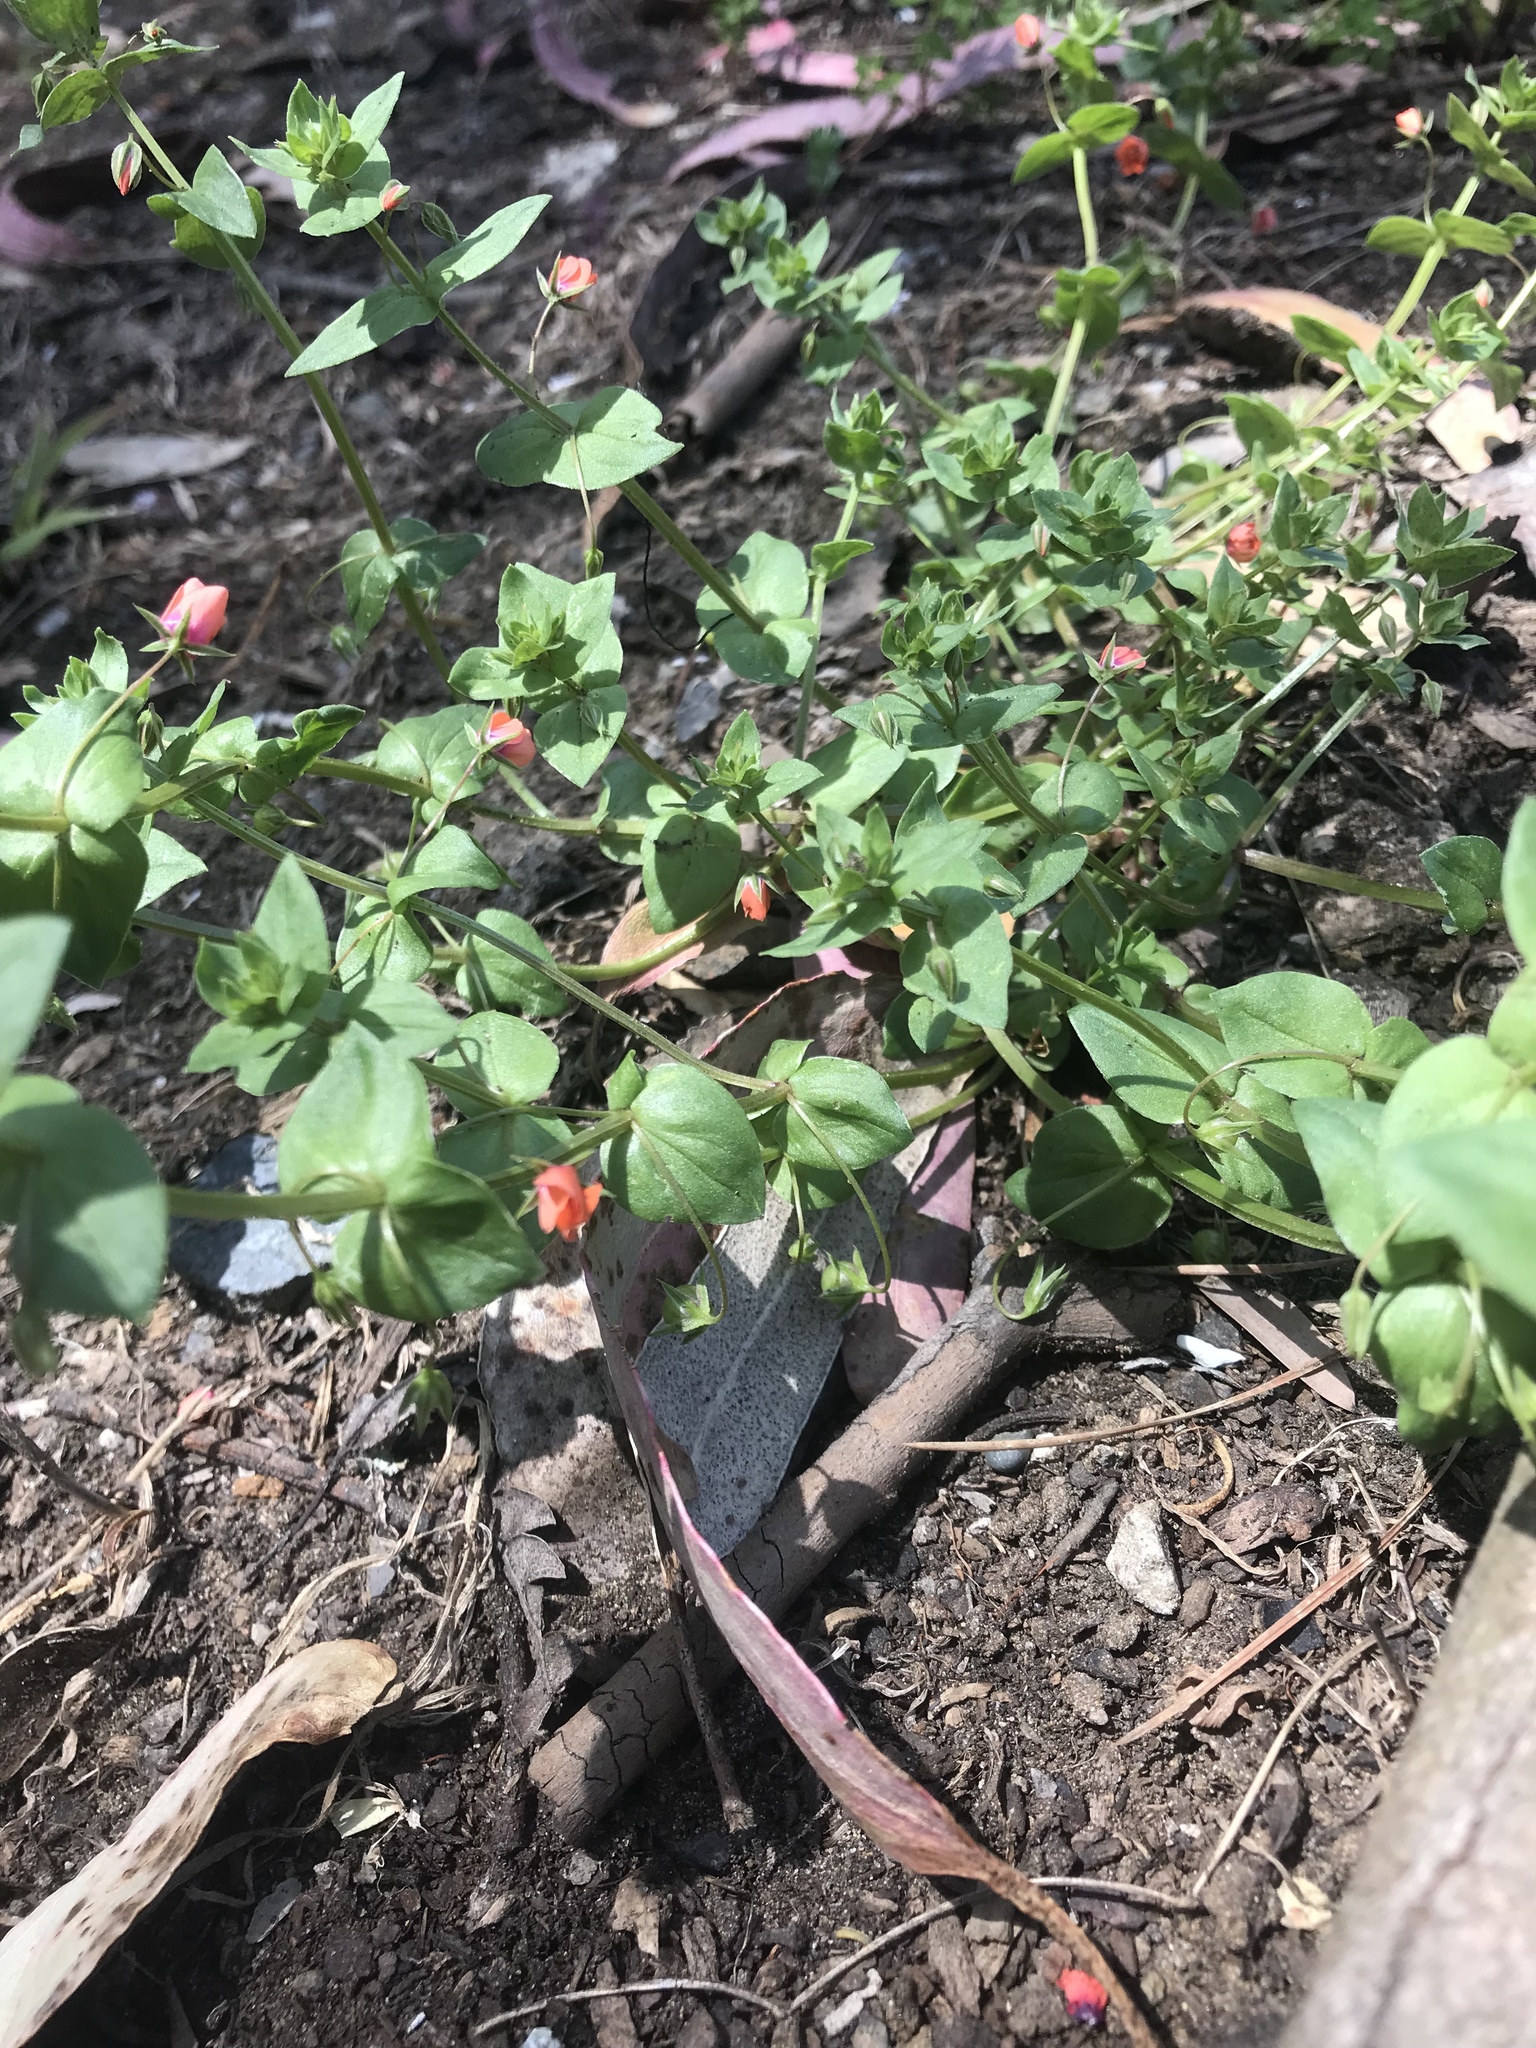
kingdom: Plantae
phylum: Tracheophyta
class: Magnoliopsida
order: Ericales
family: Primulaceae
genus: Lysimachia
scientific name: Lysimachia arvensis
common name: Scarlet pimpernel
